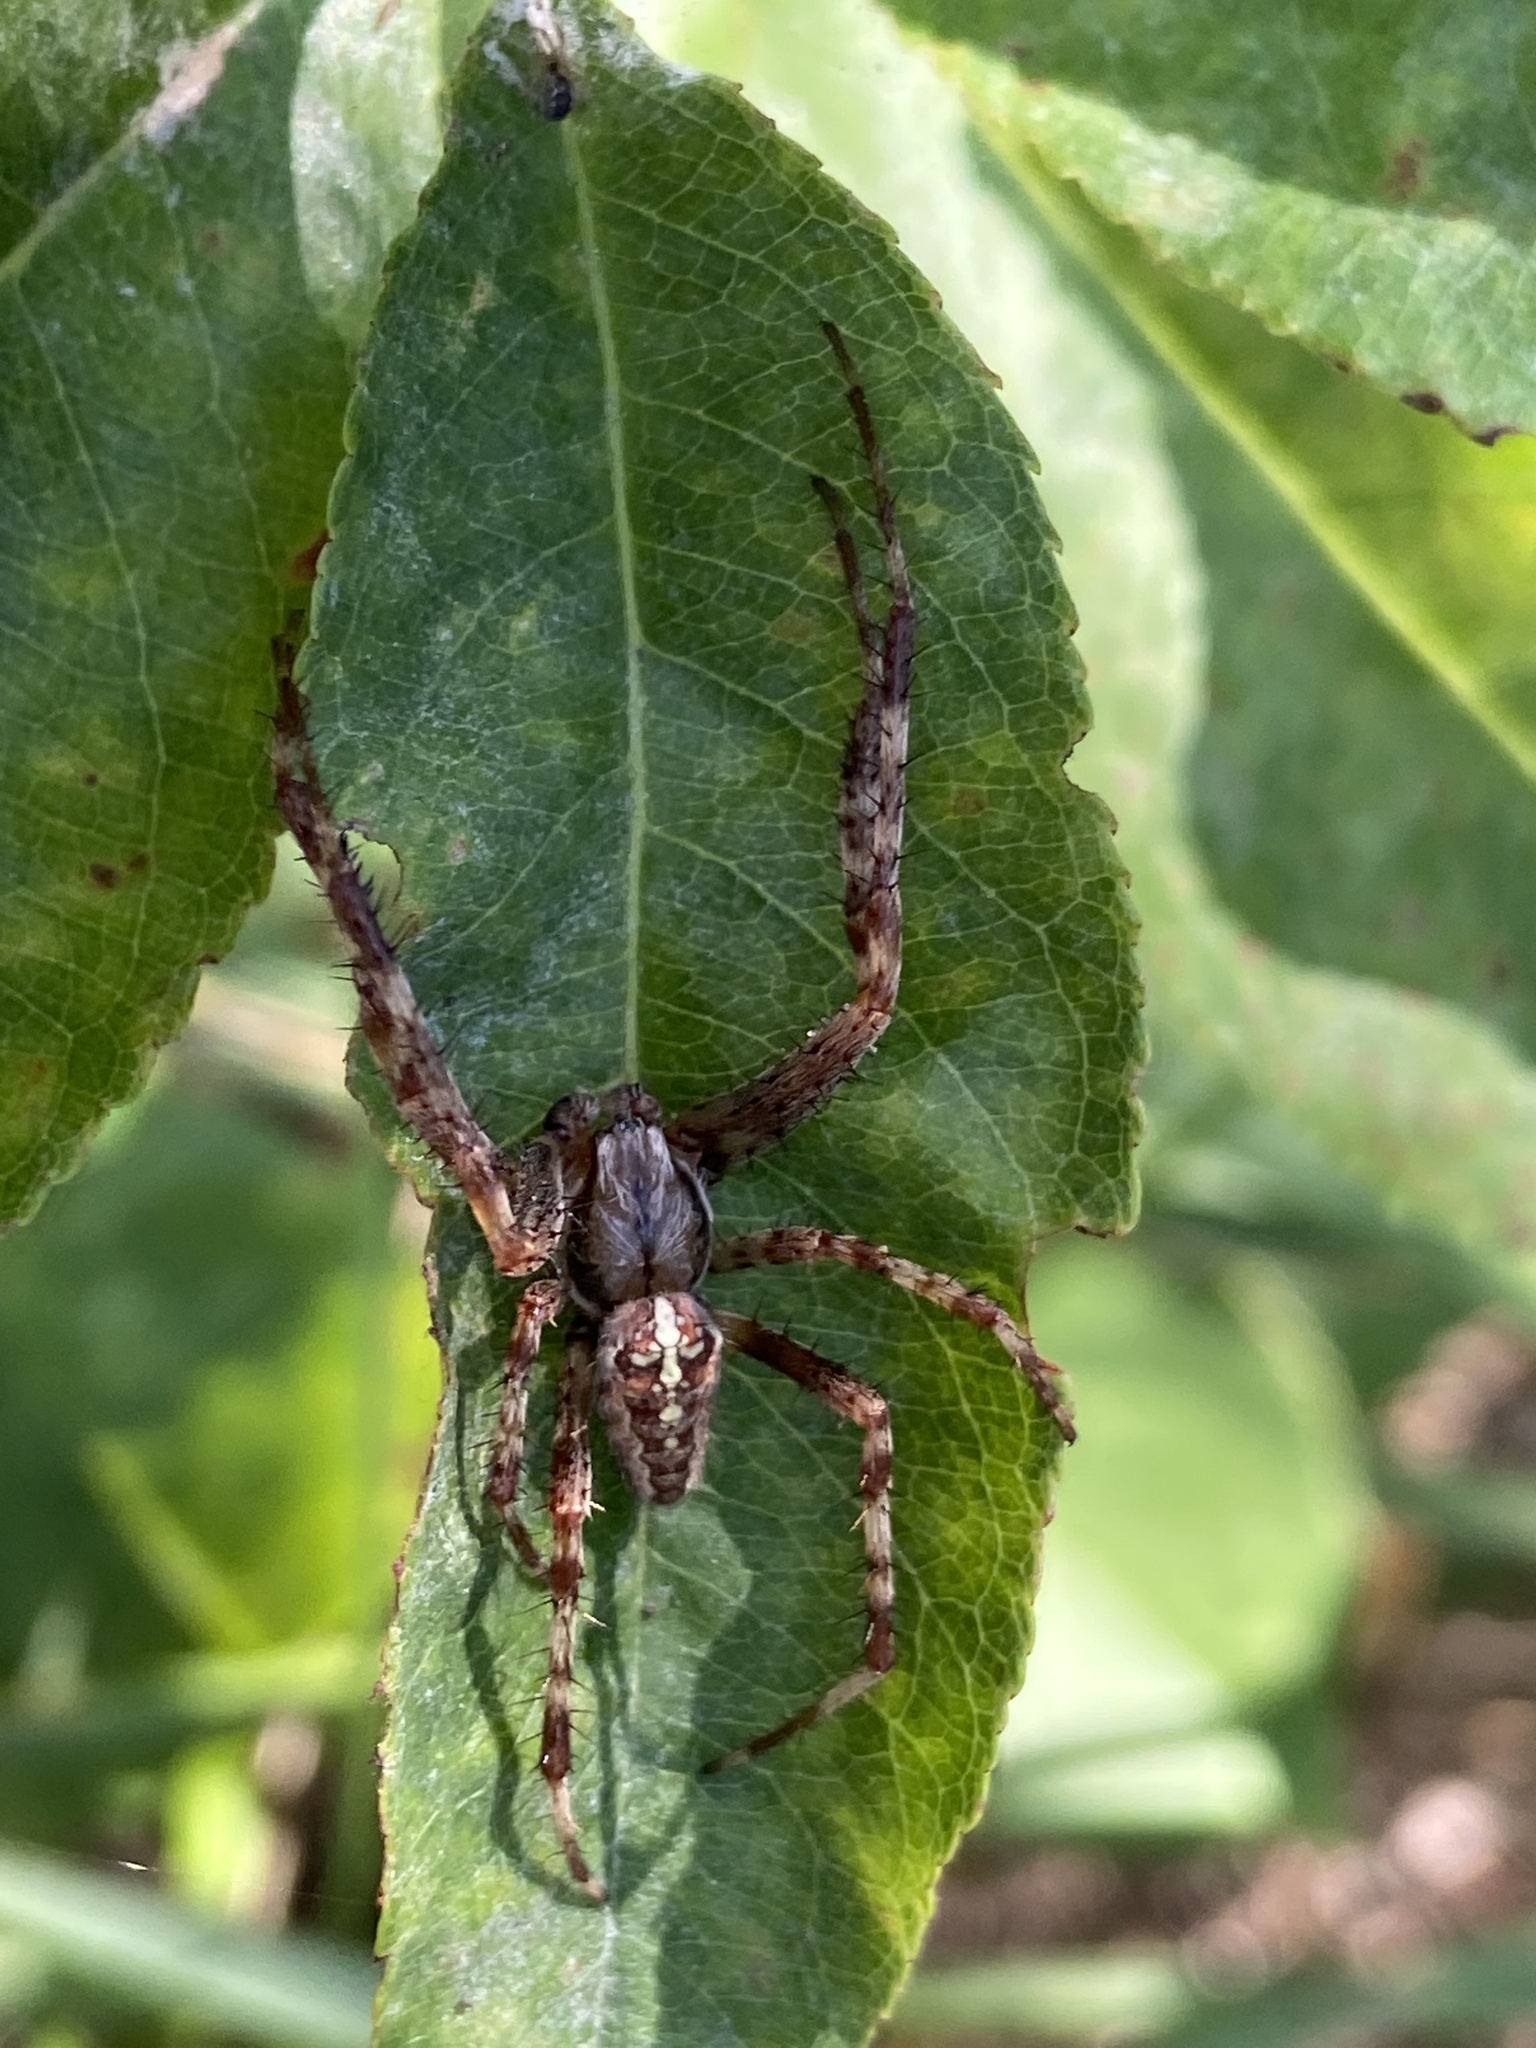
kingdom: Animalia
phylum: Arthropoda
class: Arachnida
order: Araneae
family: Araneidae
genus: Araneus
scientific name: Araneus diadematus
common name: Cross orbweaver
